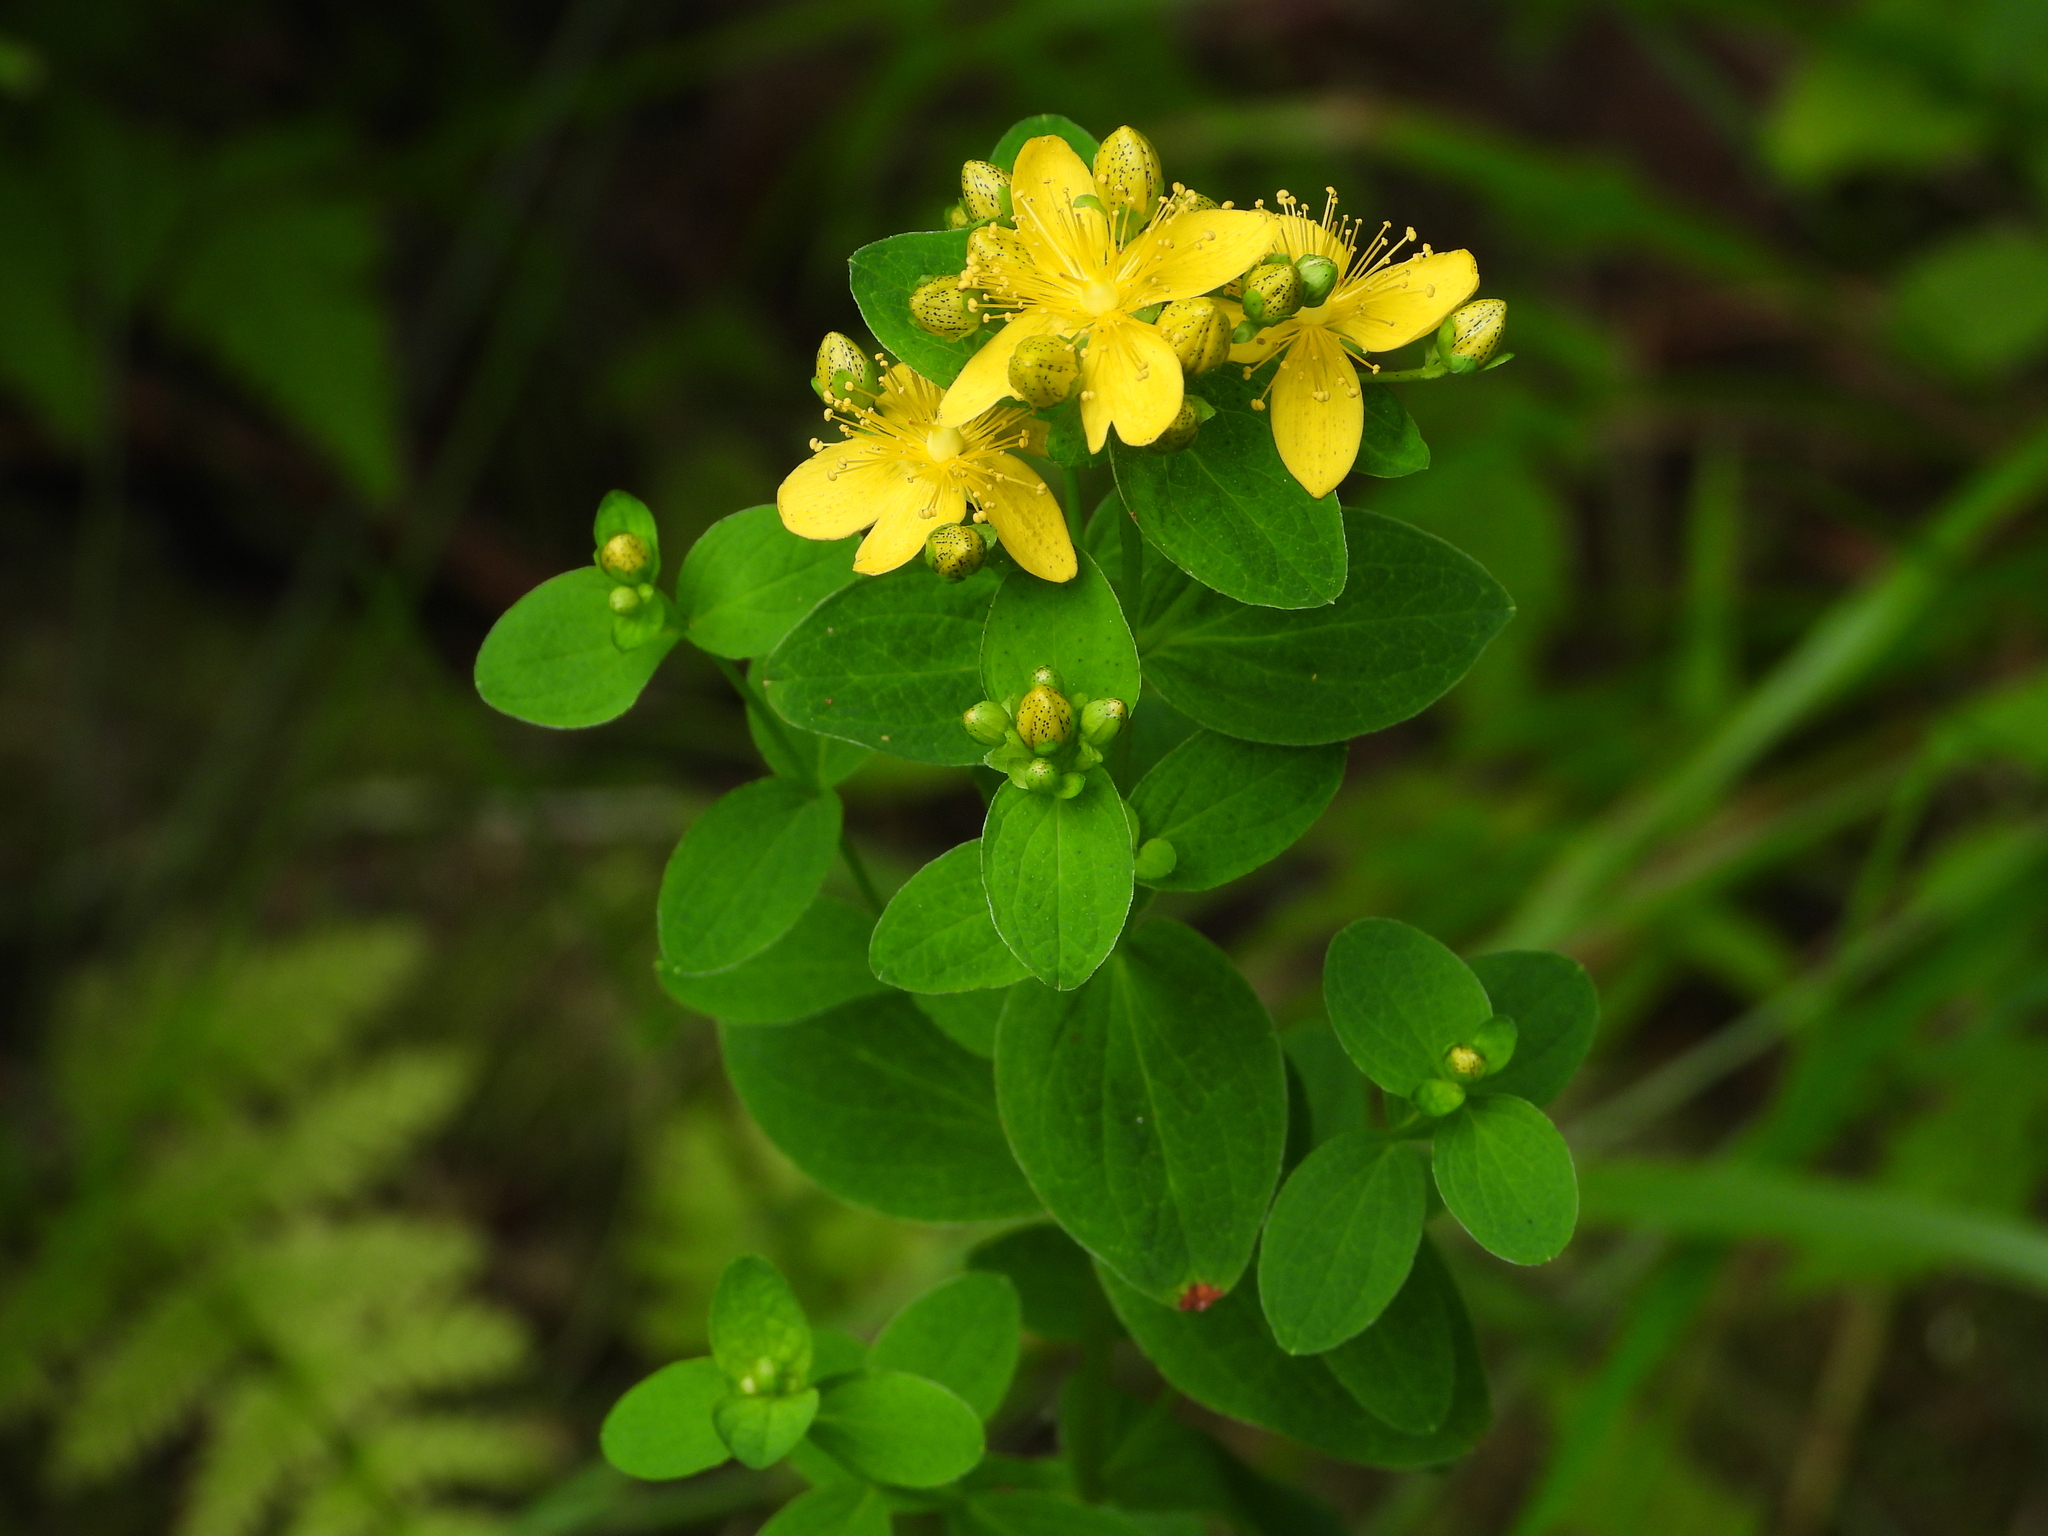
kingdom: Plantae
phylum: Tracheophyta
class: Magnoliopsida
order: Malpighiales
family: Hypericaceae
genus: Hypericum
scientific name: Hypericum maculatum
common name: Imperforate st. john's-wort
